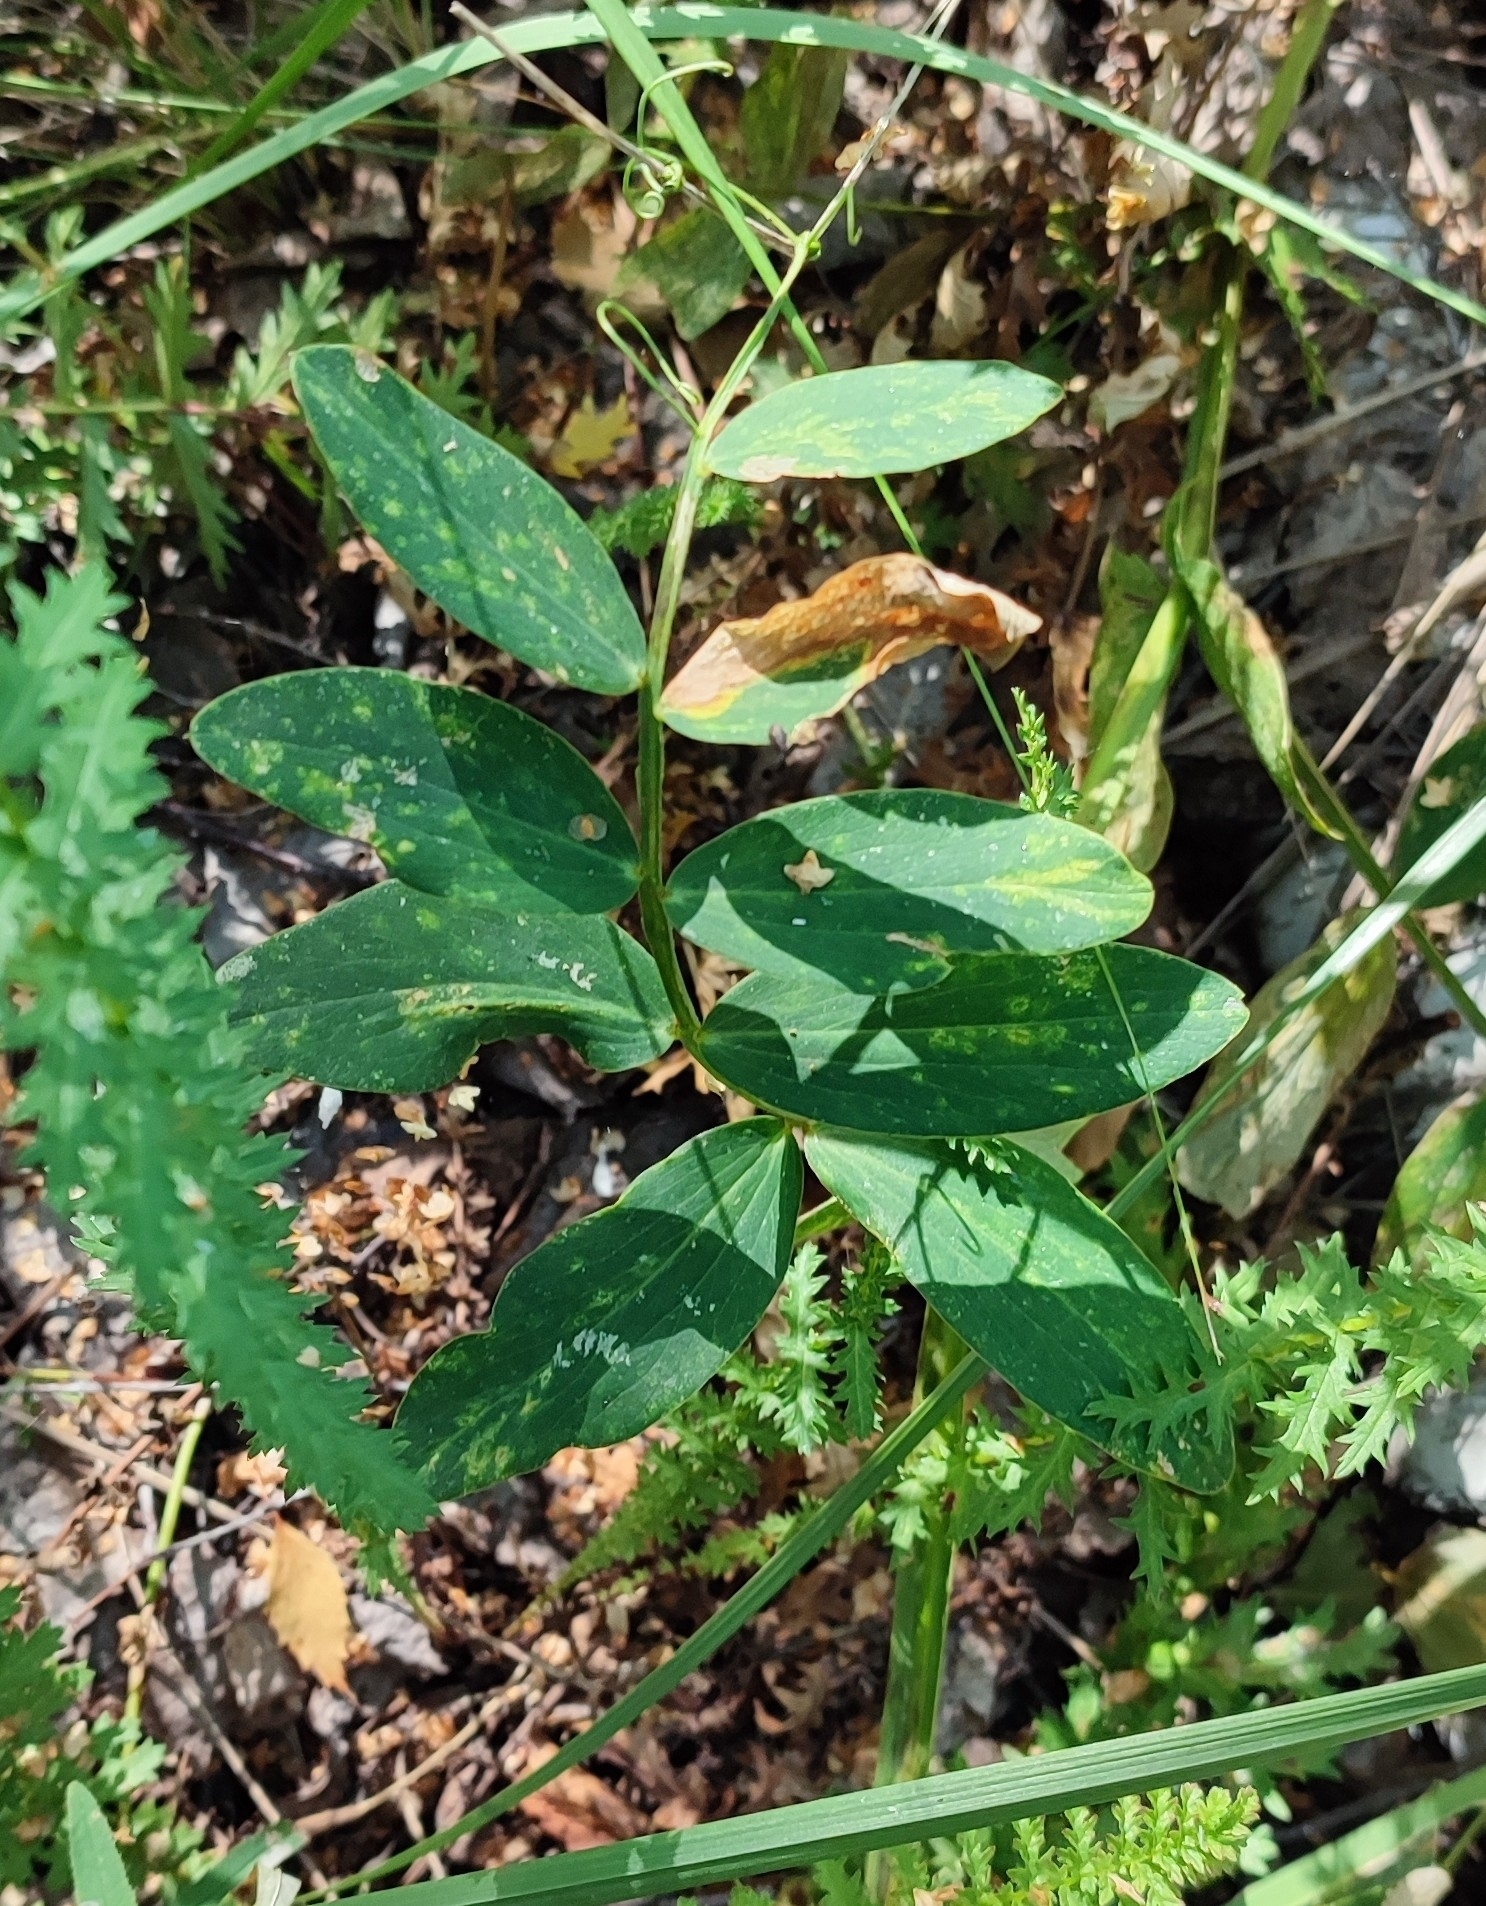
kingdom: Plantae
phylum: Tracheophyta
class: Magnoliopsida
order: Fabales
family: Fabaceae
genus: Lathyrus
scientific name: Lathyrus pisiformis
